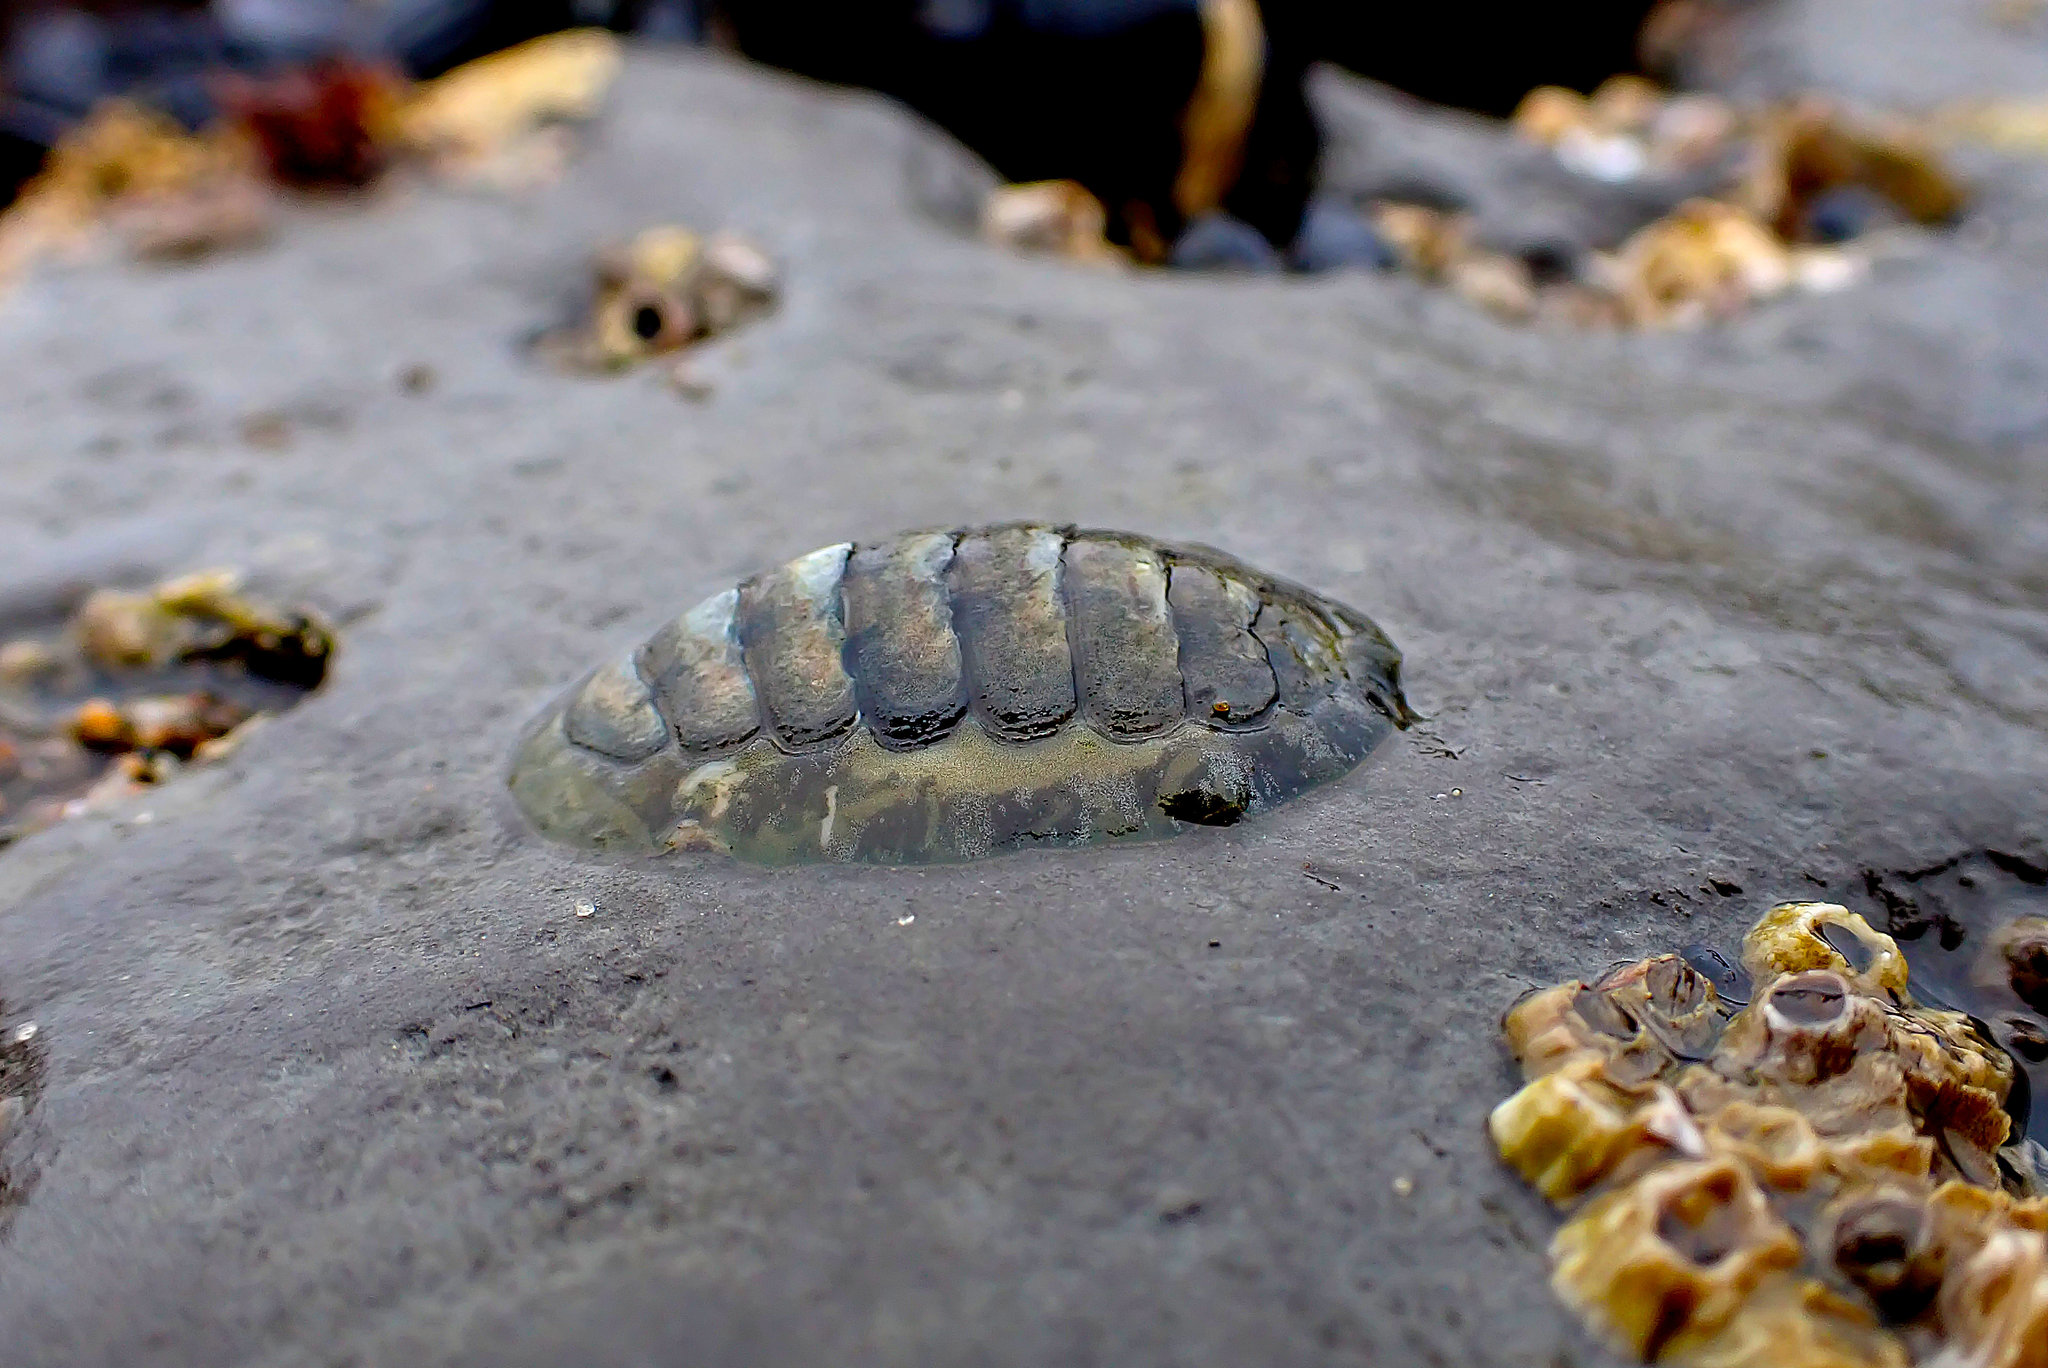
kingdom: Animalia
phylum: Mollusca
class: Polyplacophora
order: Chitonida
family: Tonicellidae
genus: Cyanoplax
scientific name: Cyanoplax hartwegii
